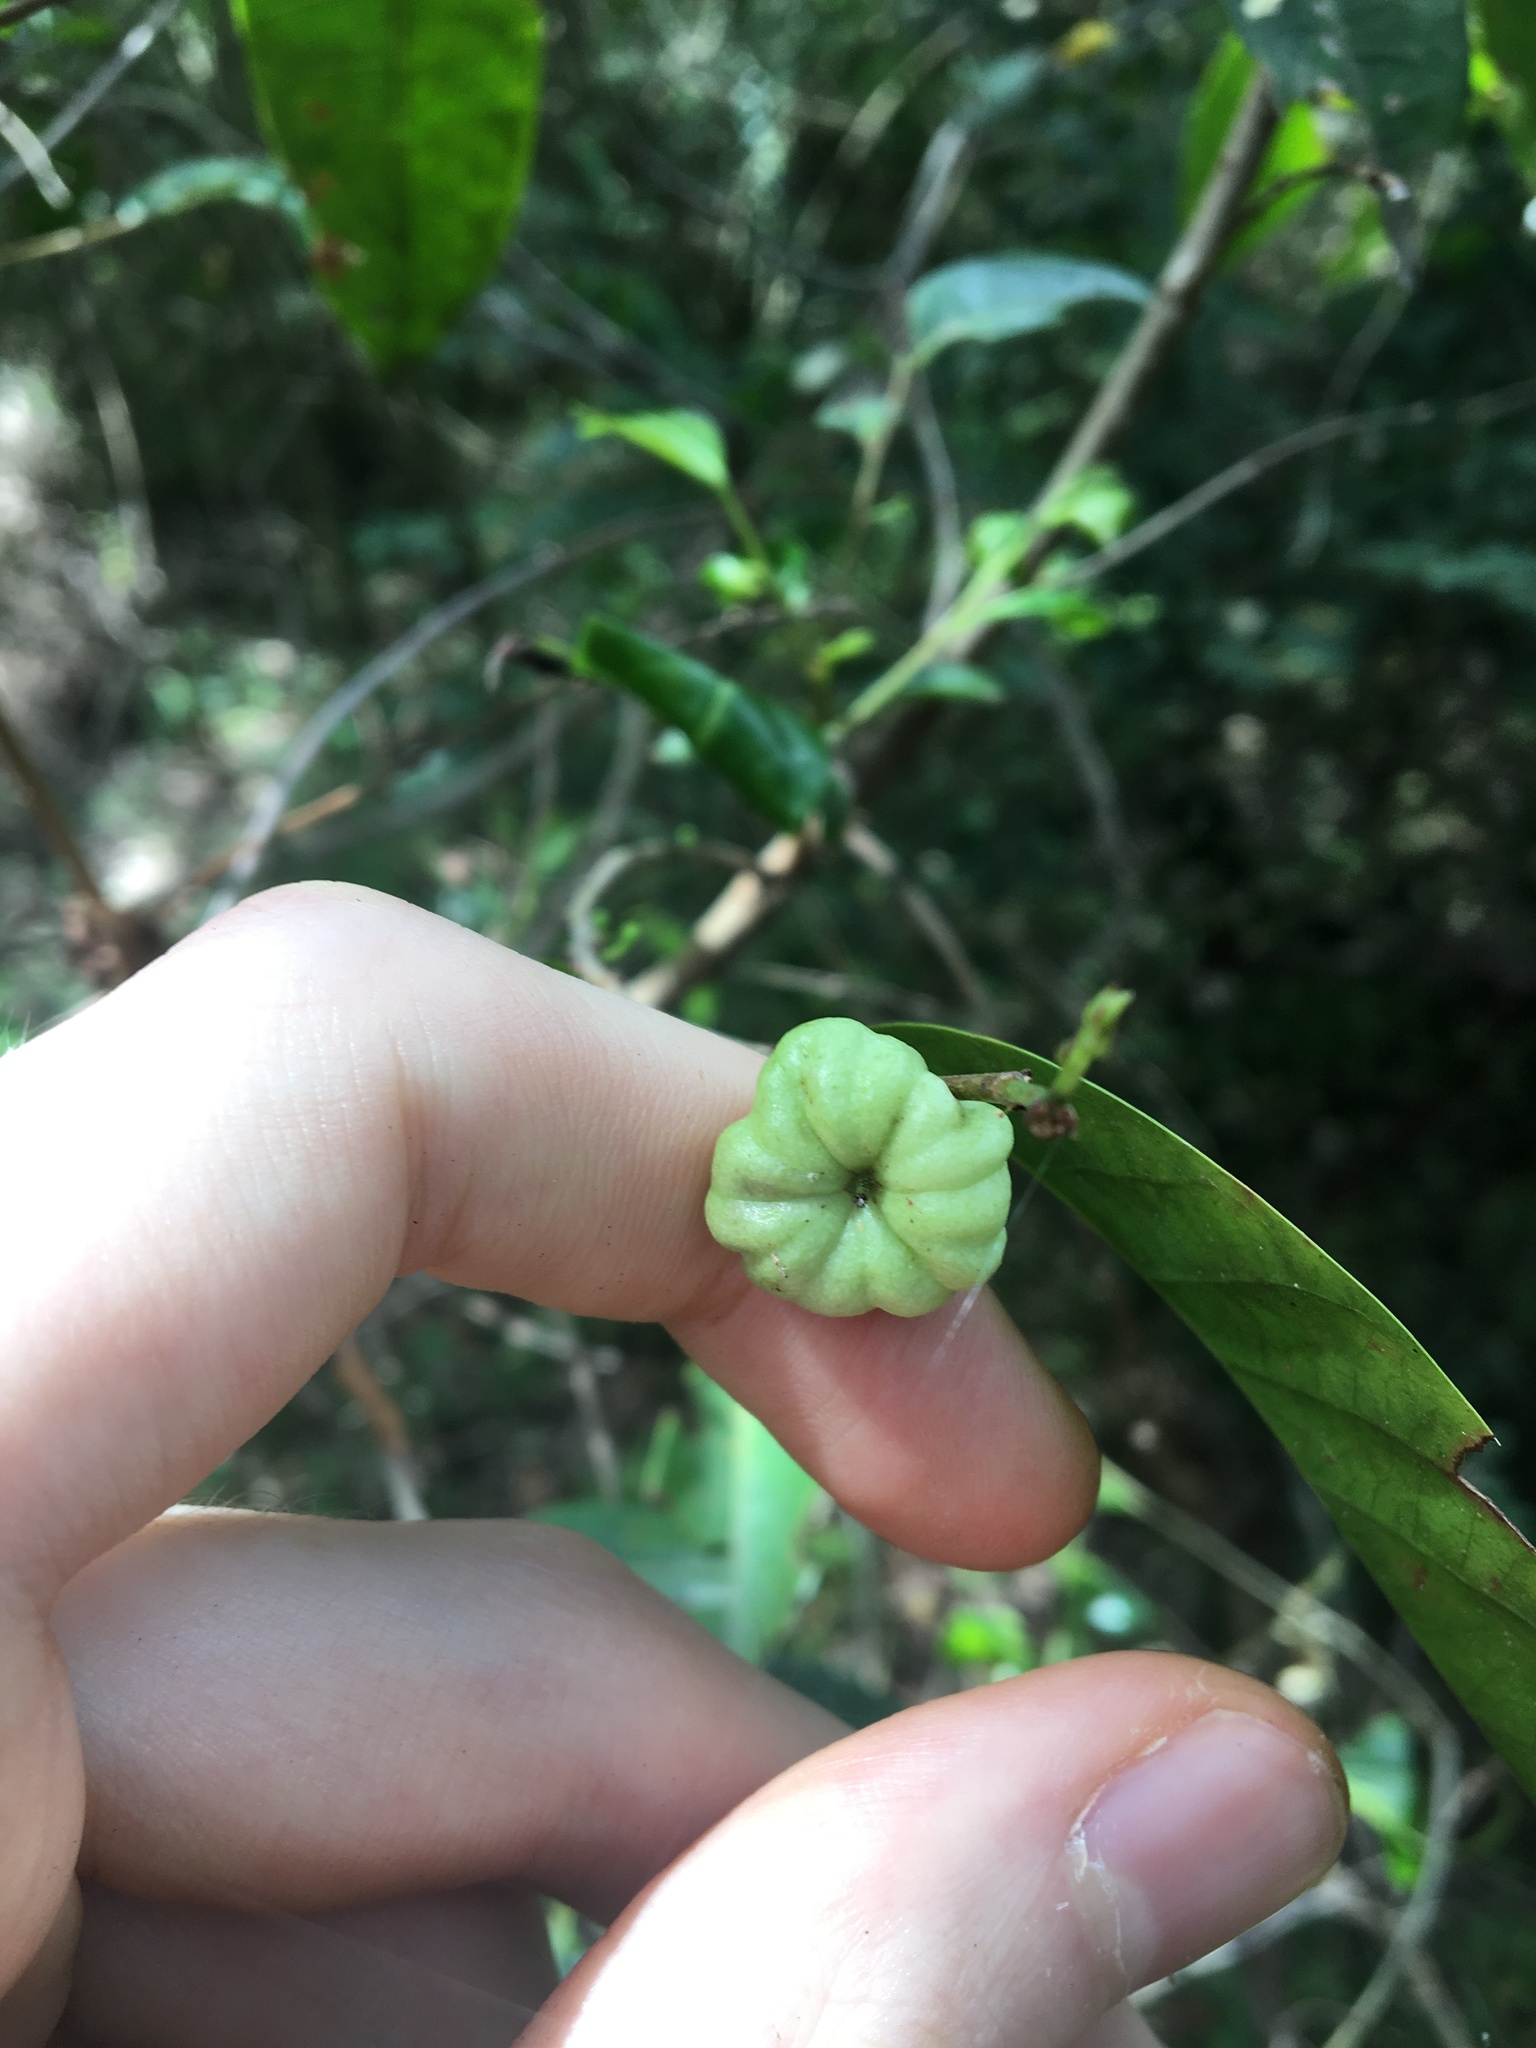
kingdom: Plantae
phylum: Tracheophyta
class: Magnoliopsida
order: Malpighiales
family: Phyllanthaceae
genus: Glochidion
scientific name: Glochidion ferdinandi
